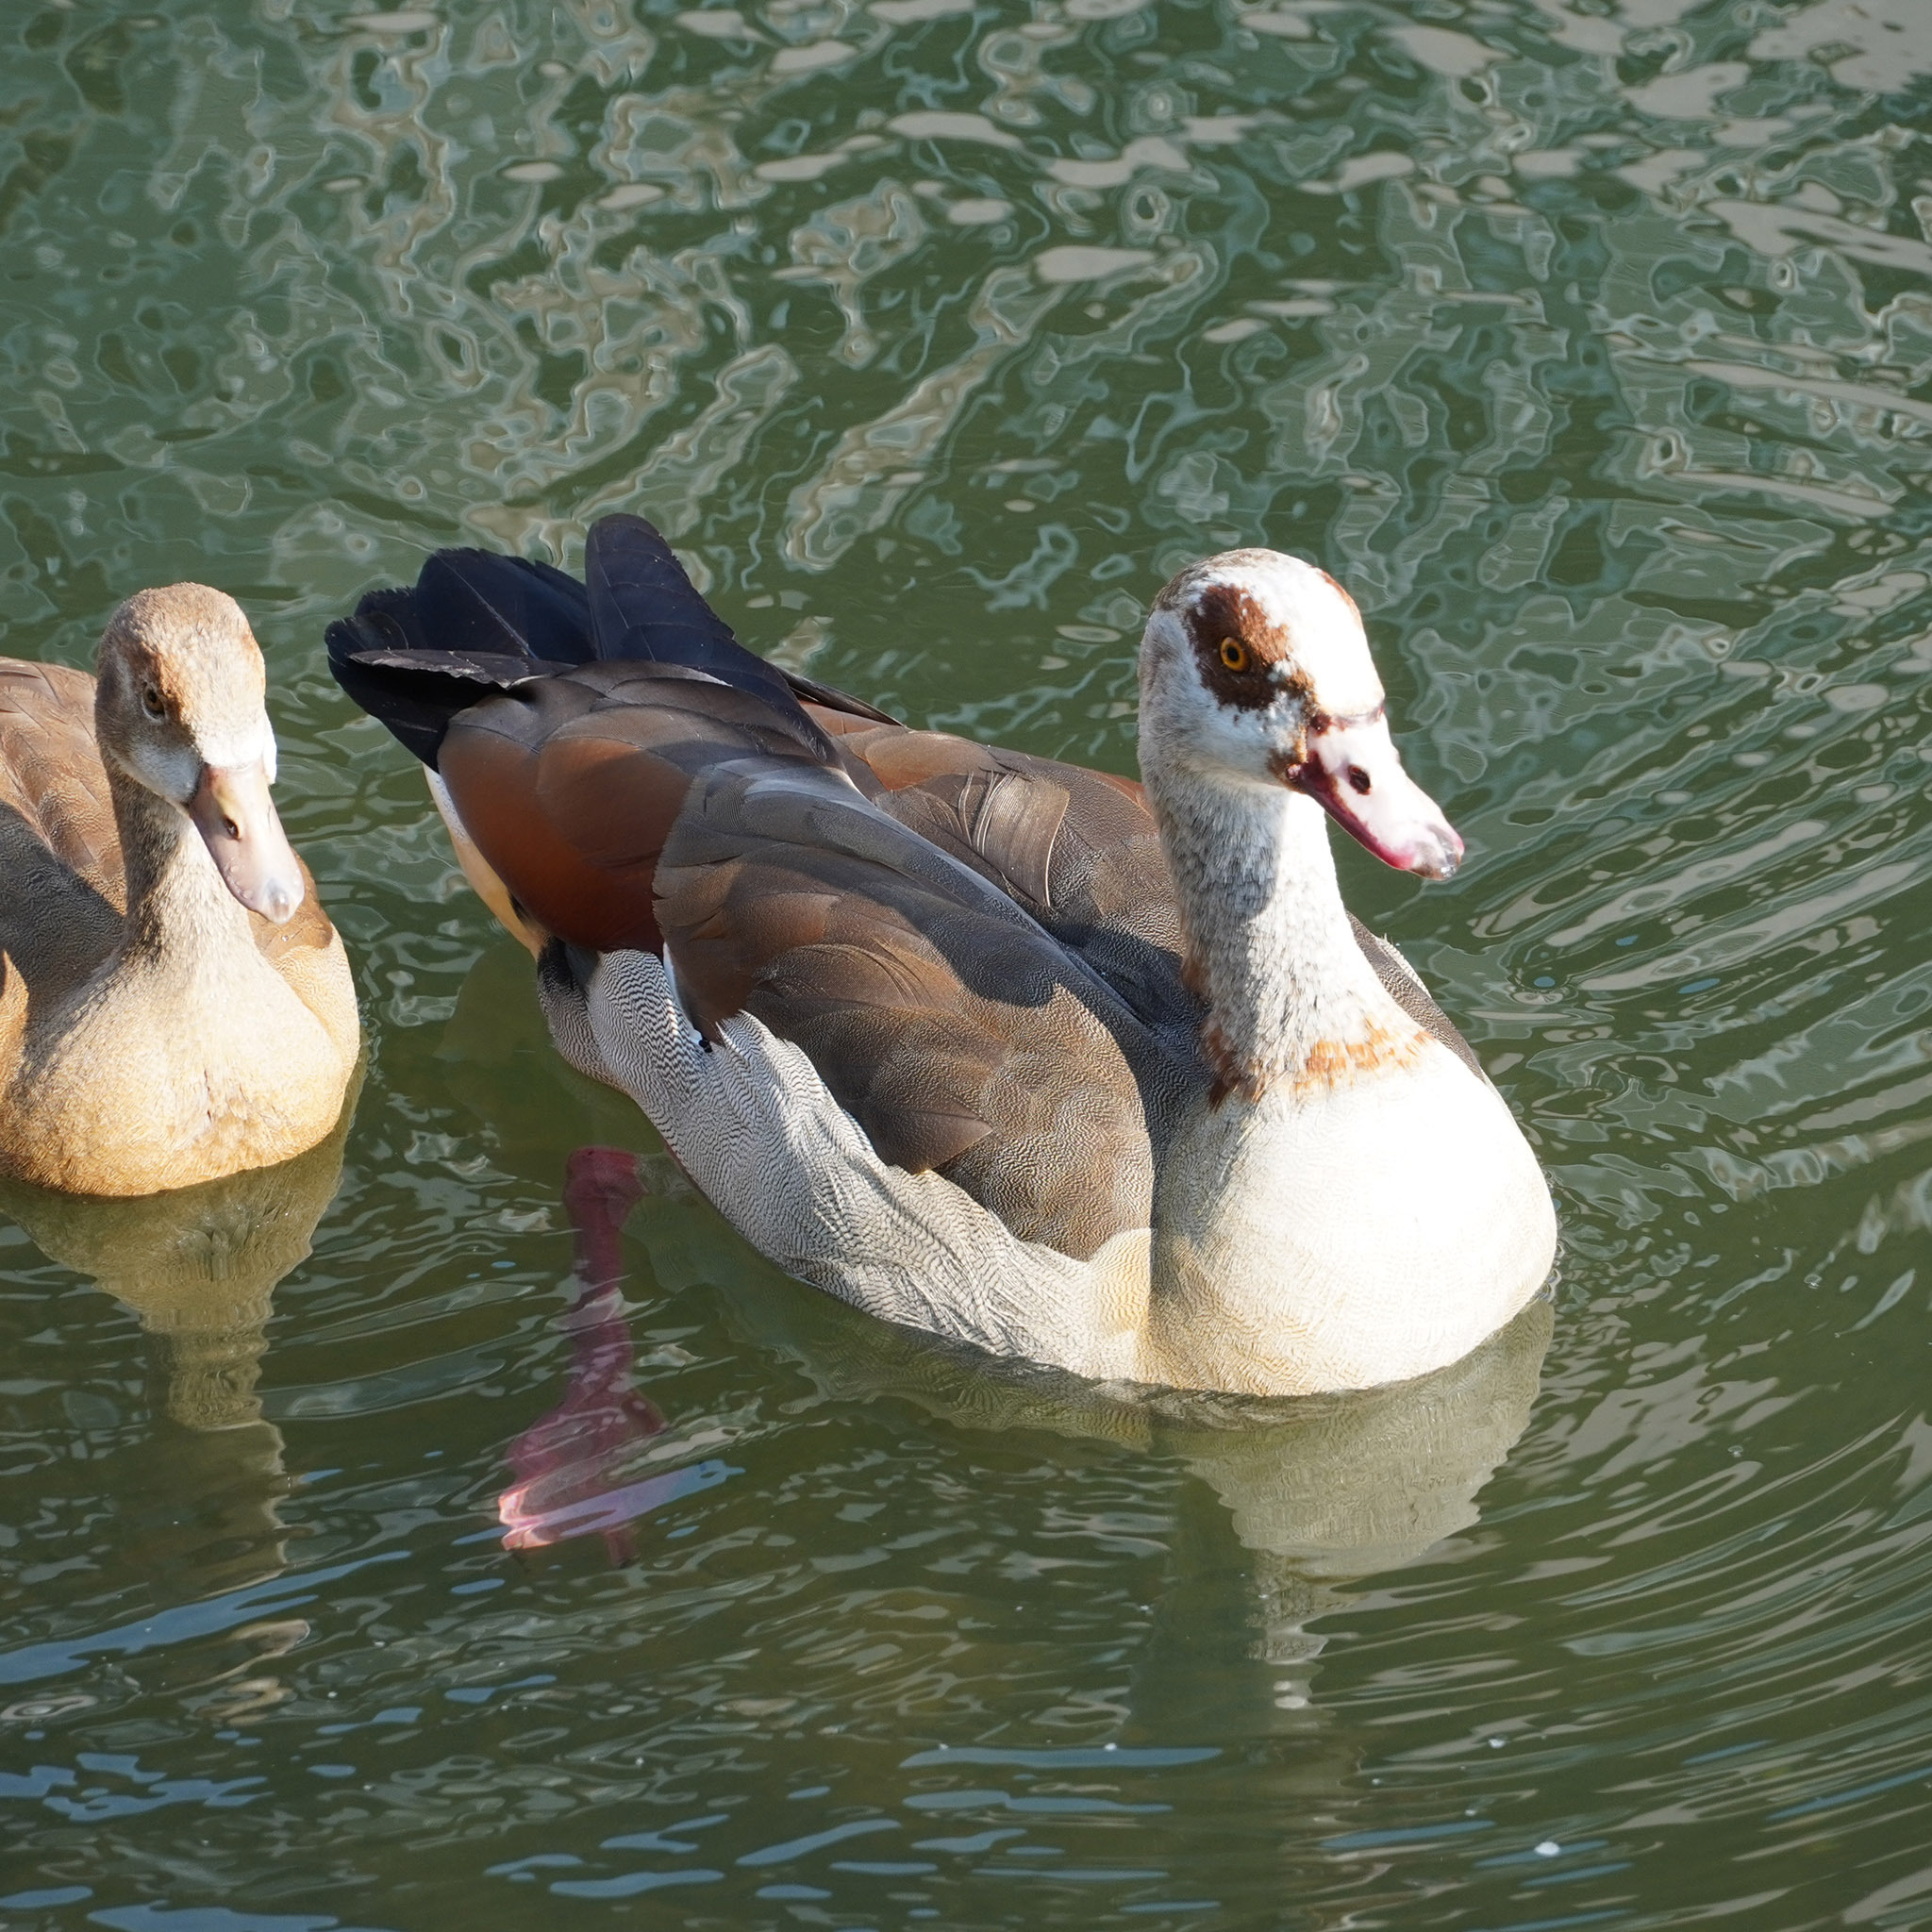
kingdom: Animalia
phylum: Chordata
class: Aves
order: Anseriformes
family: Anatidae
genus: Alopochen
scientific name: Alopochen aegyptiaca
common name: Egyptian goose
